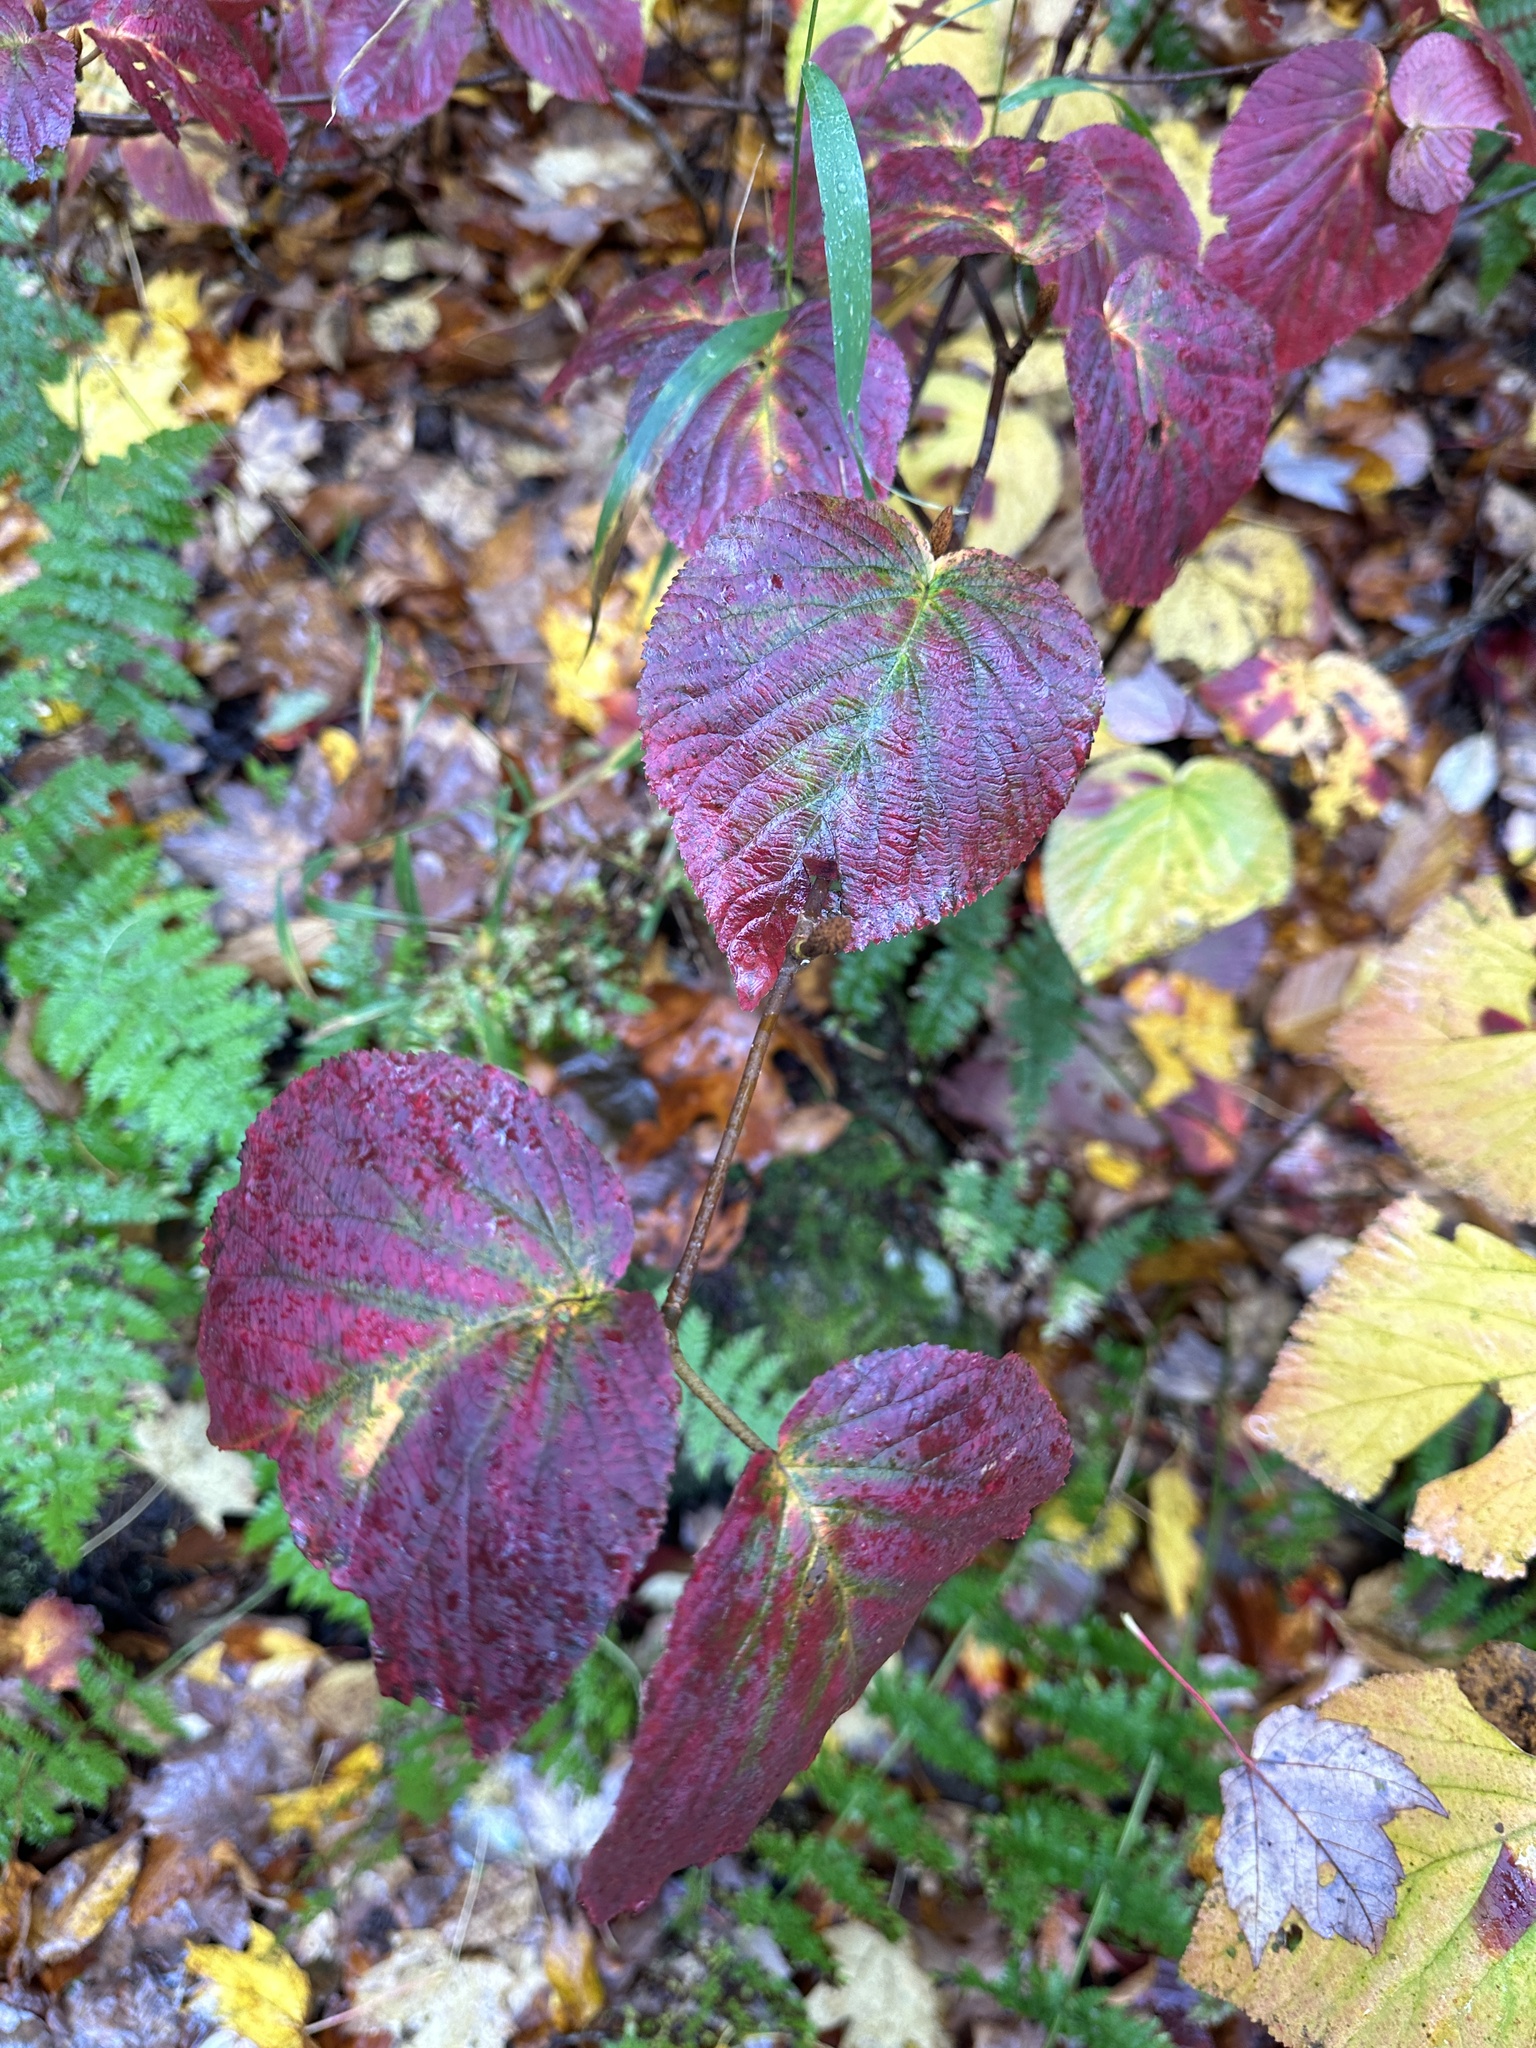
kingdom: Plantae
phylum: Tracheophyta
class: Magnoliopsida
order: Dipsacales
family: Viburnaceae
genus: Viburnum
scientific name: Viburnum lantanoides
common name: Hobblebush
